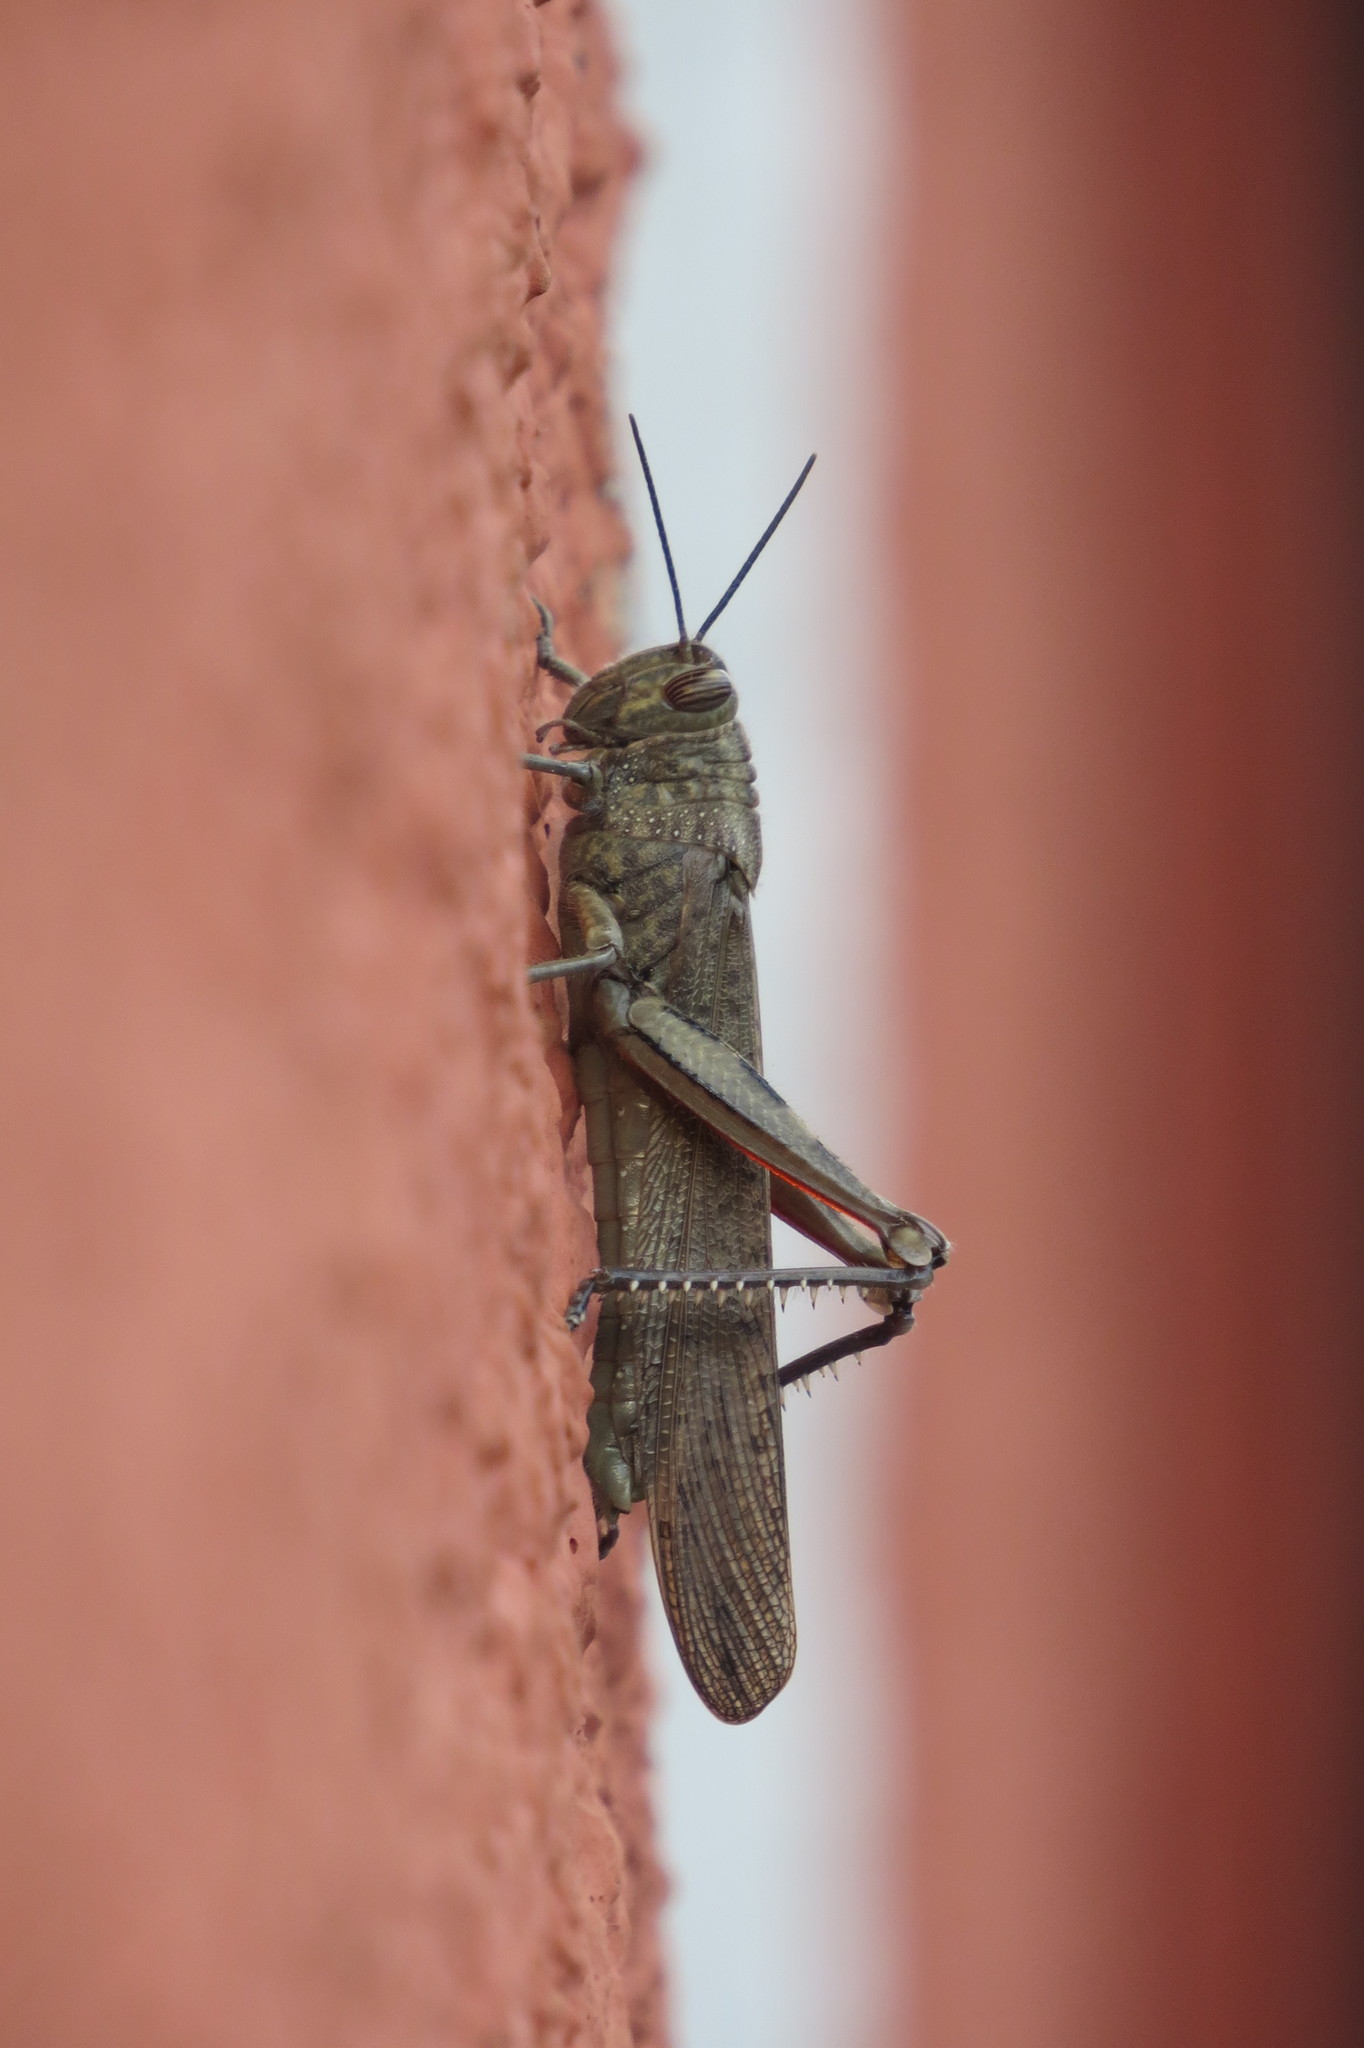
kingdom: Animalia
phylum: Arthropoda
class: Insecta
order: Orthoptera
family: Acrididae
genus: Anacridium
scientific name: Anacridium aegyptium
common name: Egyptian grasshopper
